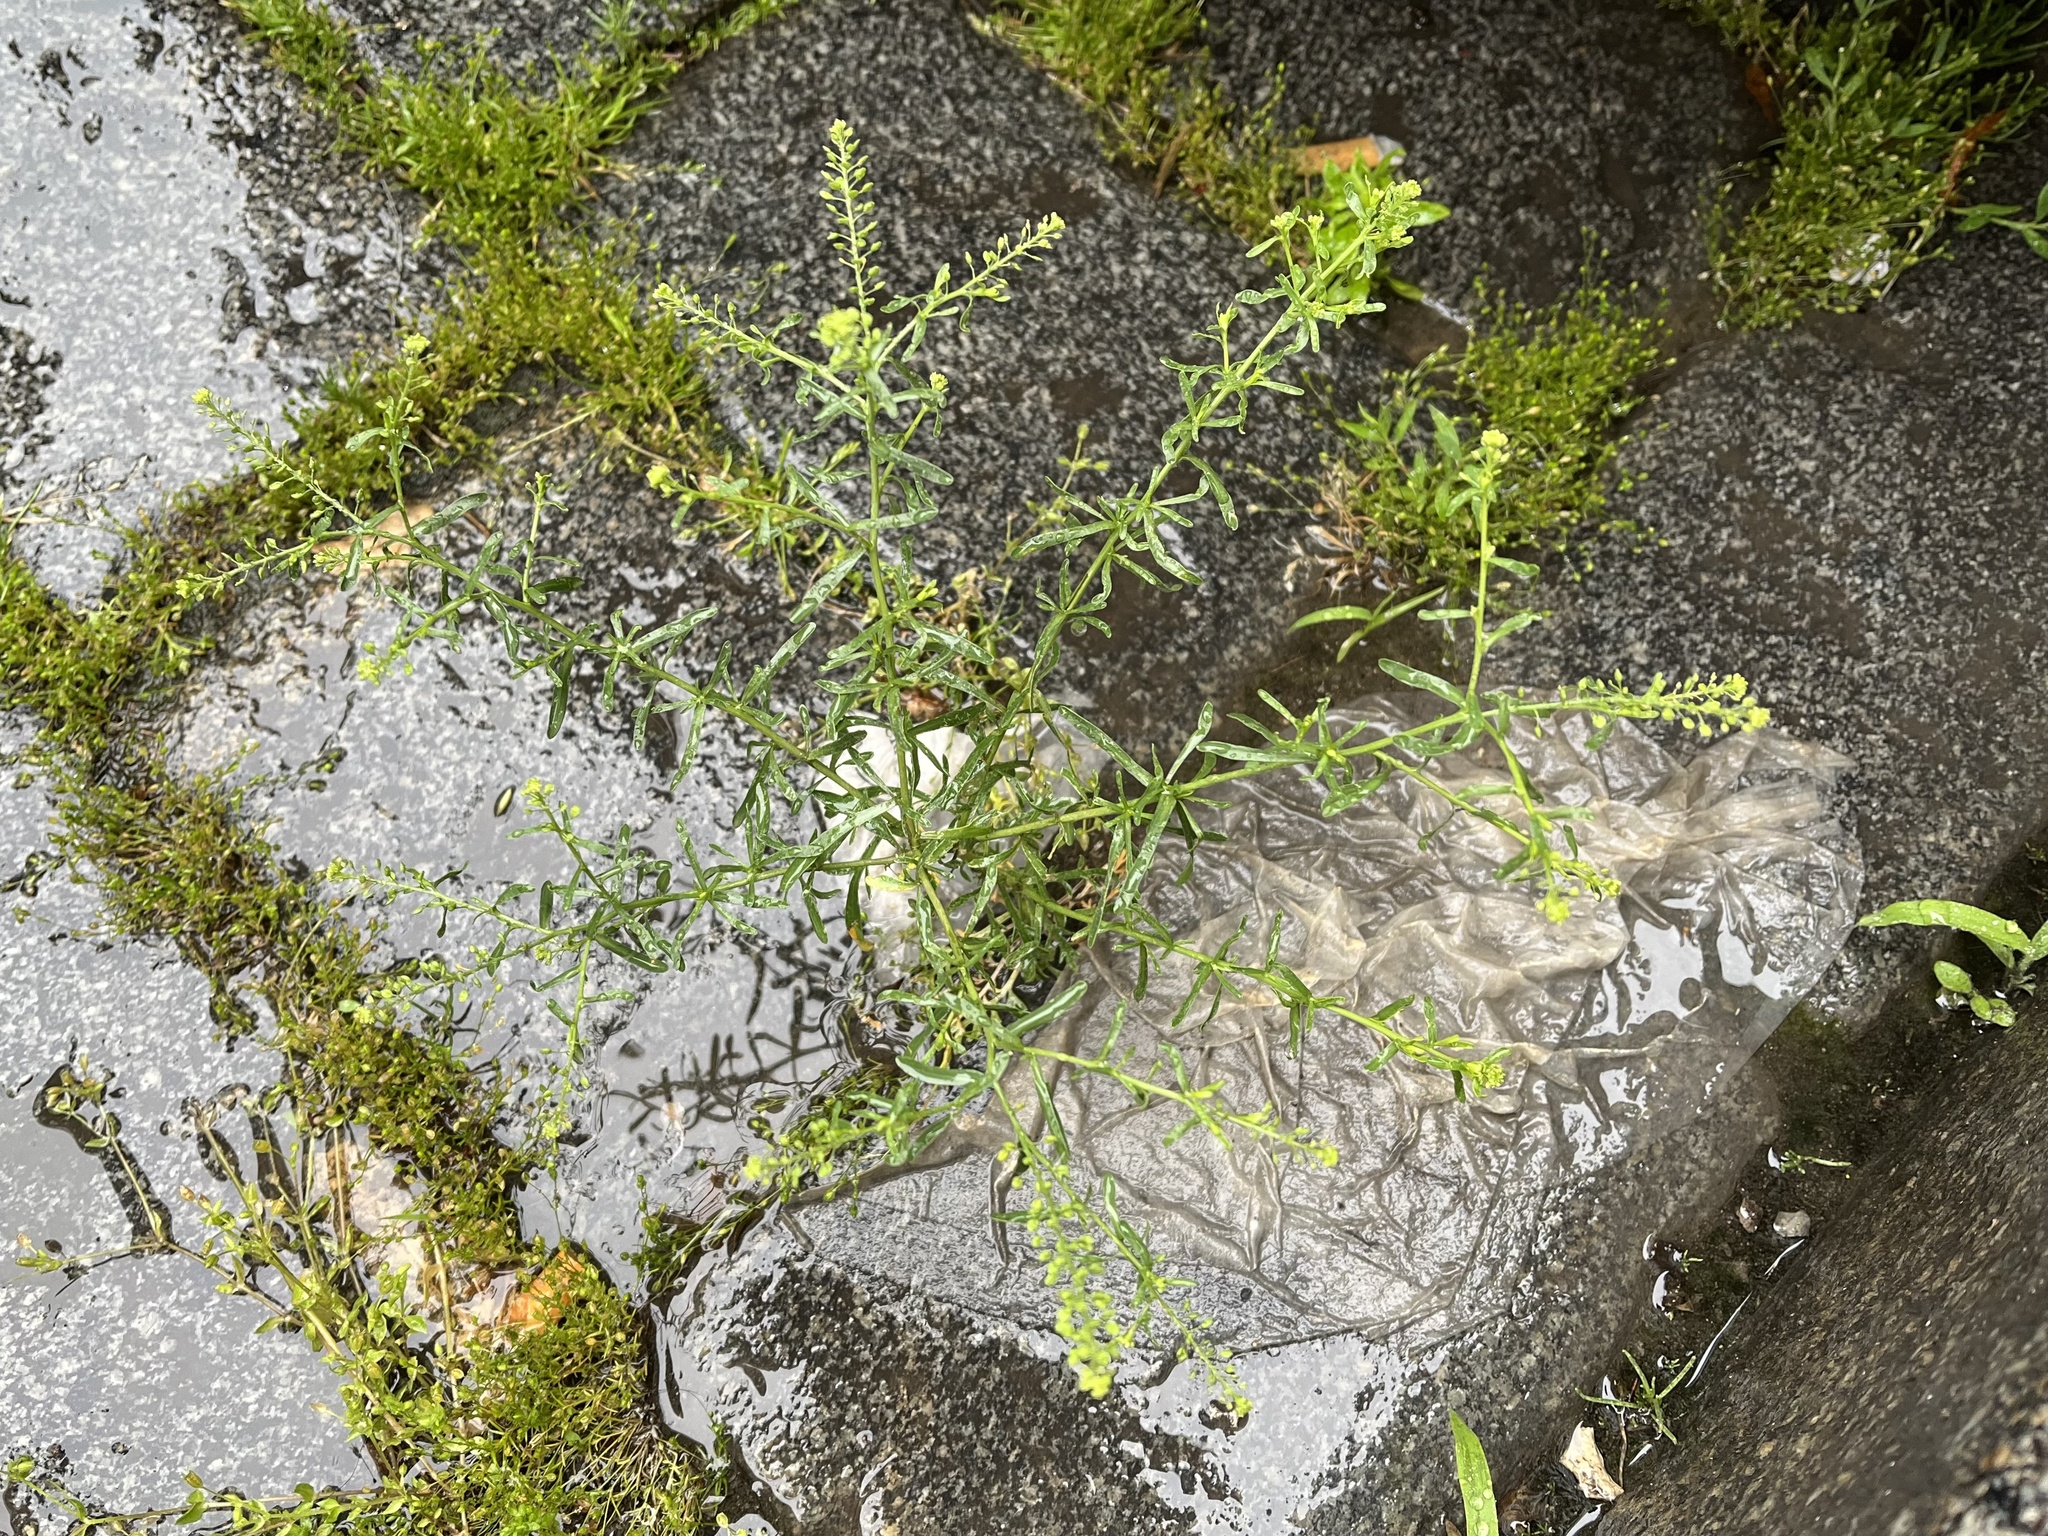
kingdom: Plantae
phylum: Tracheophyta
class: Magnoliopsida
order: Brassicales
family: Brassicaceae
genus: Lepidium
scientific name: Lepidium ruderale
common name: Narrow-leaved pepperwort
